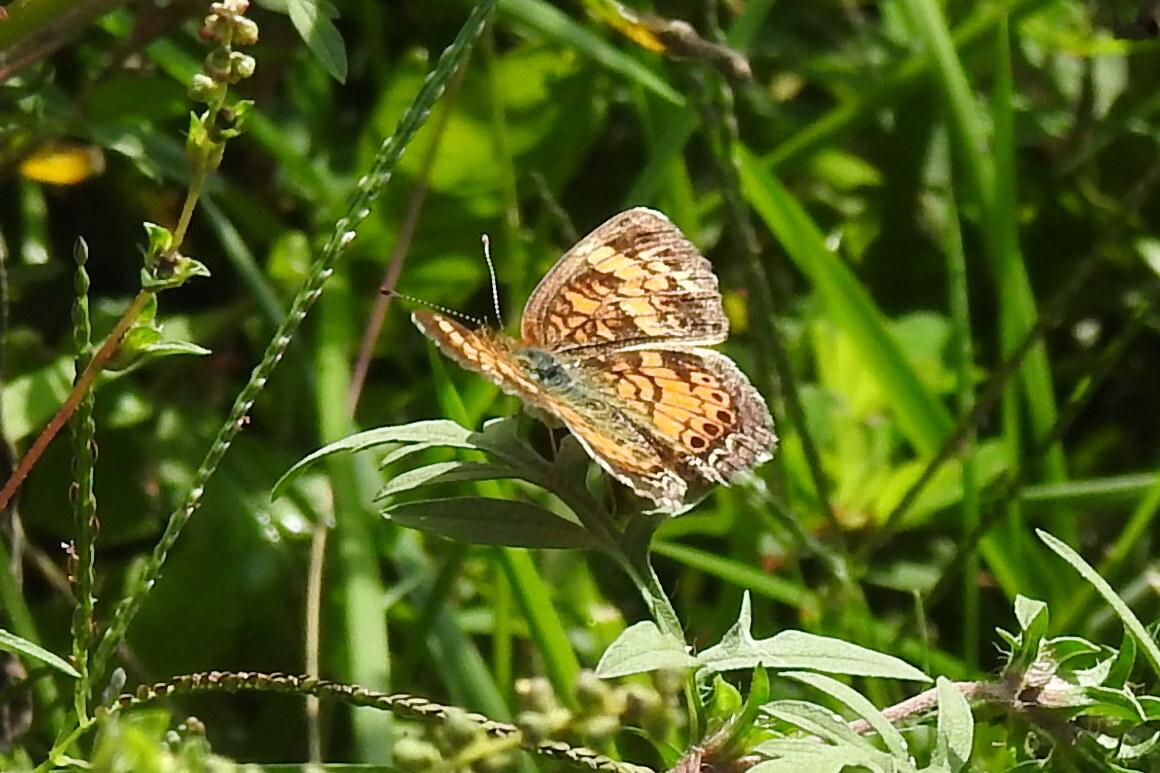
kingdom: Animalia
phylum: Arthropoda
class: Insecta
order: Lepidoptera
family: Nymphalidae
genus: Phyciodes
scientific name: Phyciodes tharos
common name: Pearl crescent
